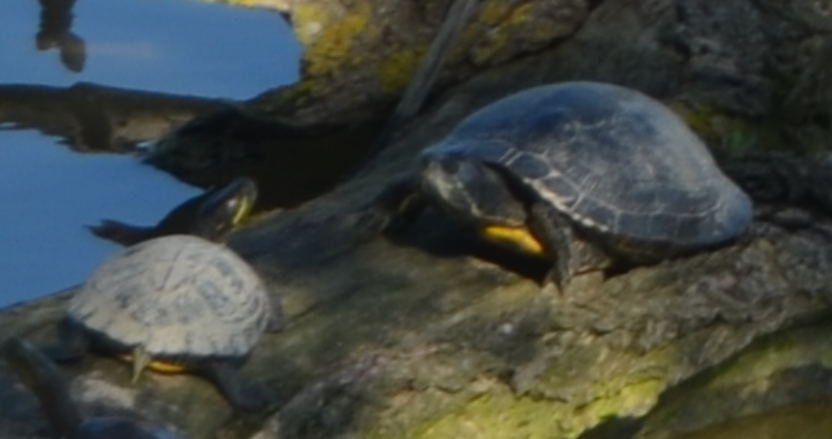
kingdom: Animalia
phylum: Chordata
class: Testudines
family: Emydidae
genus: Trachemys
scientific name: Trachemys scripta
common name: Slider
